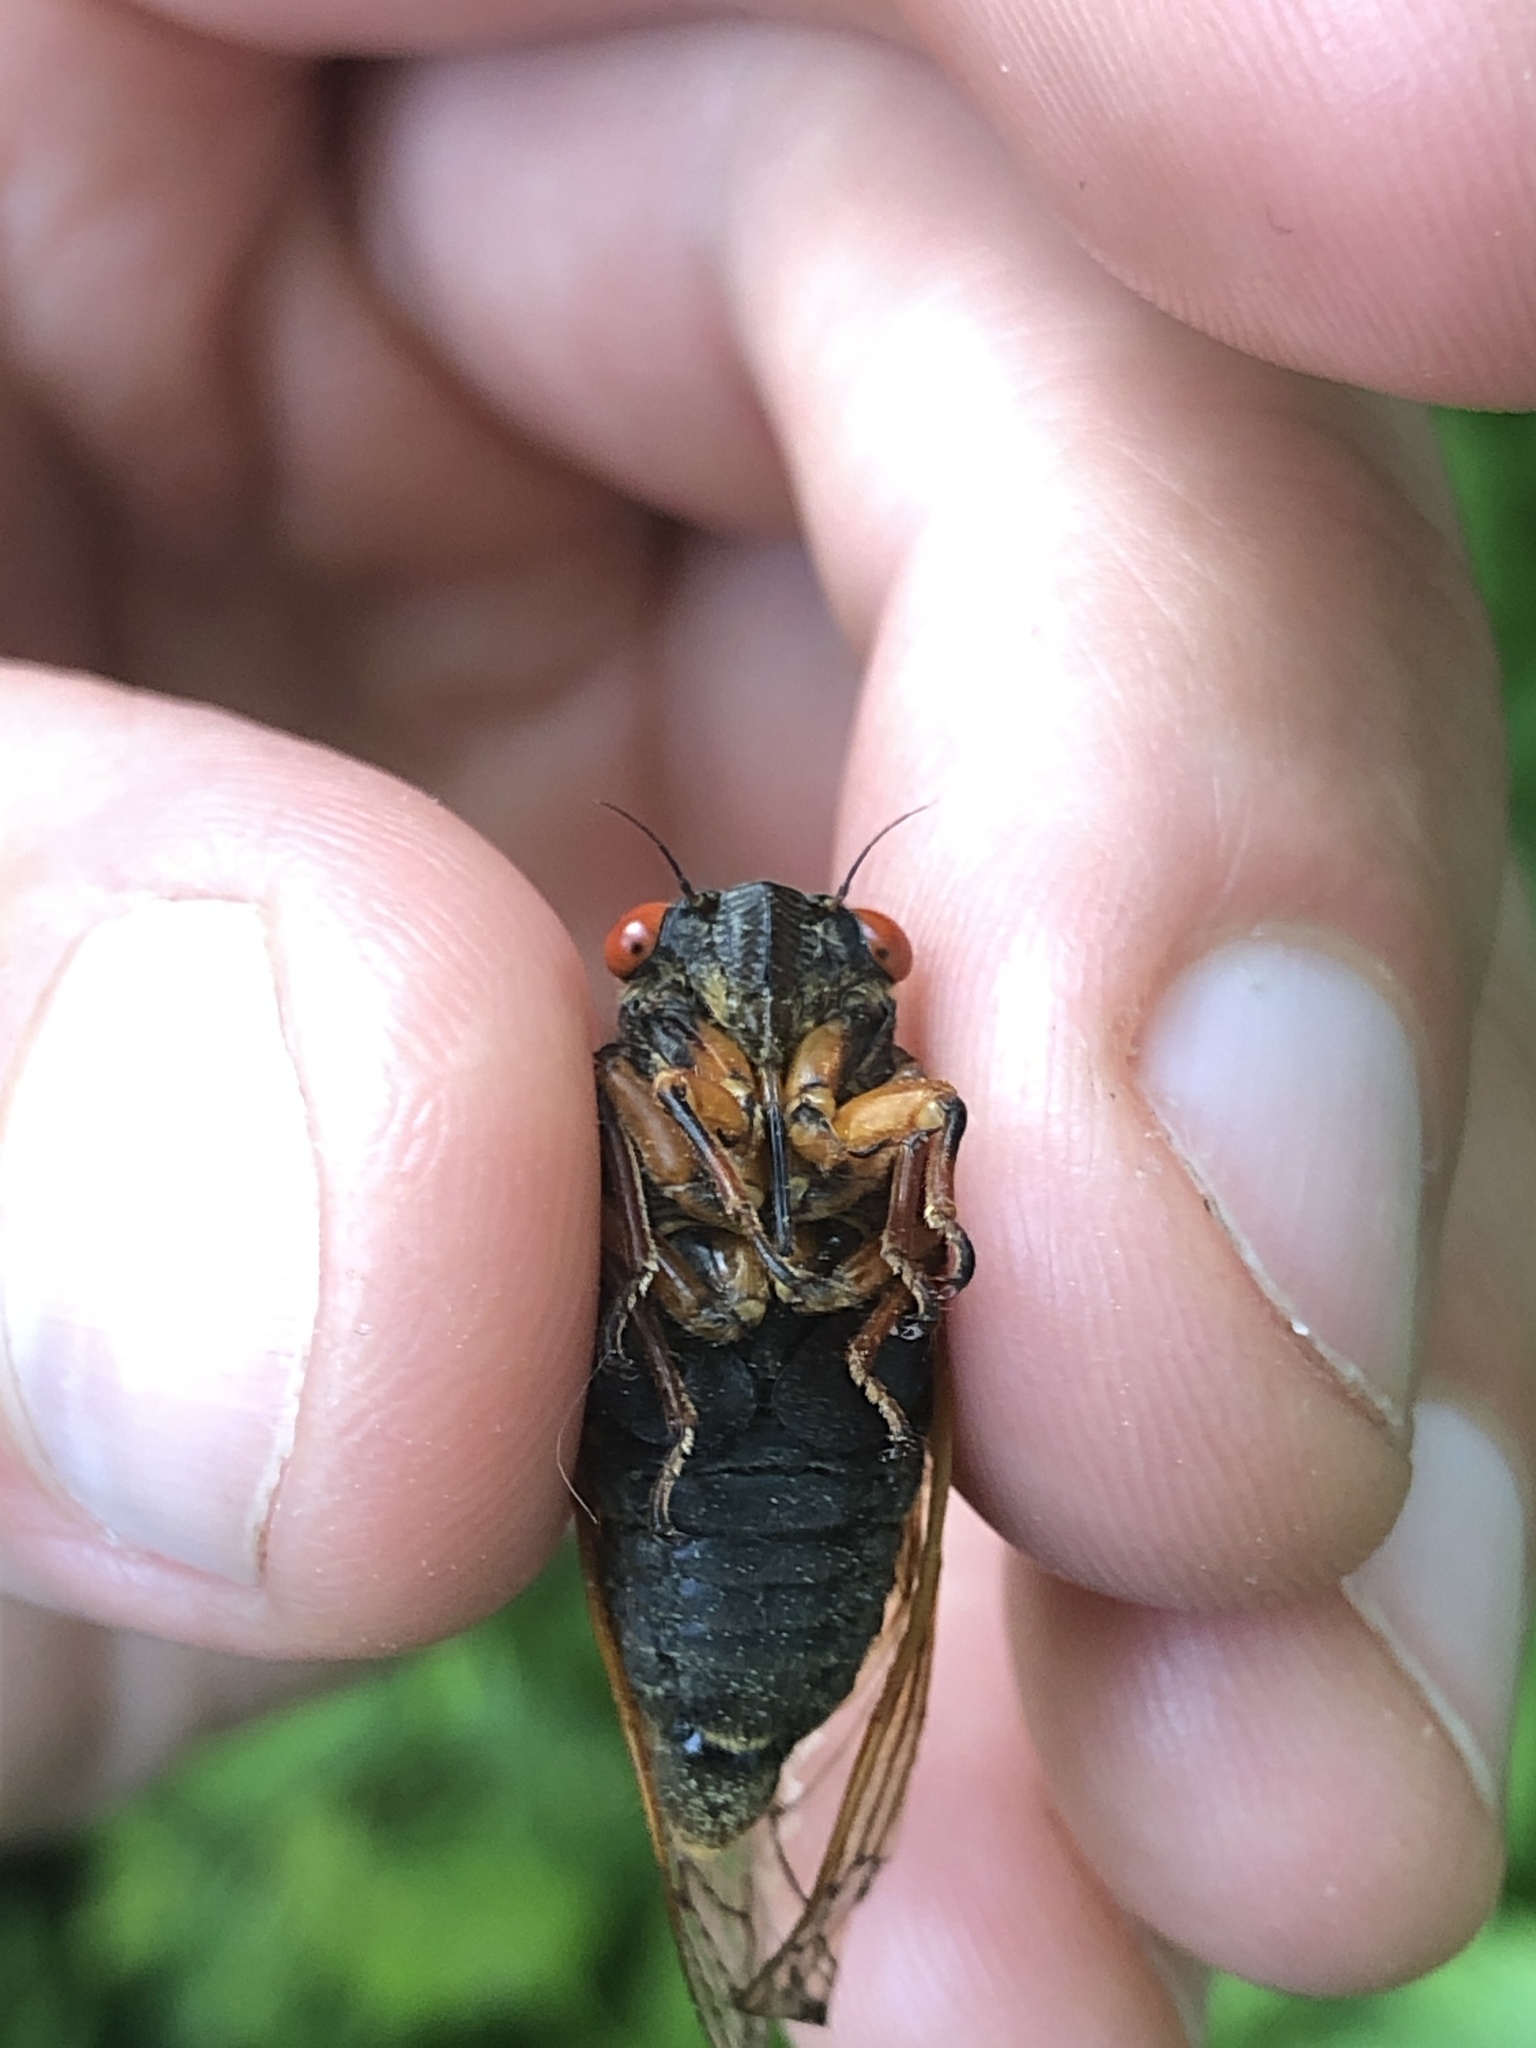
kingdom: Animalia
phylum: Arthropoda
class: Insecta
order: Hemiptera
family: Cicadidae
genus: Magicicada
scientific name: Magicicada cassini
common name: Cassin's 17-year cicada
